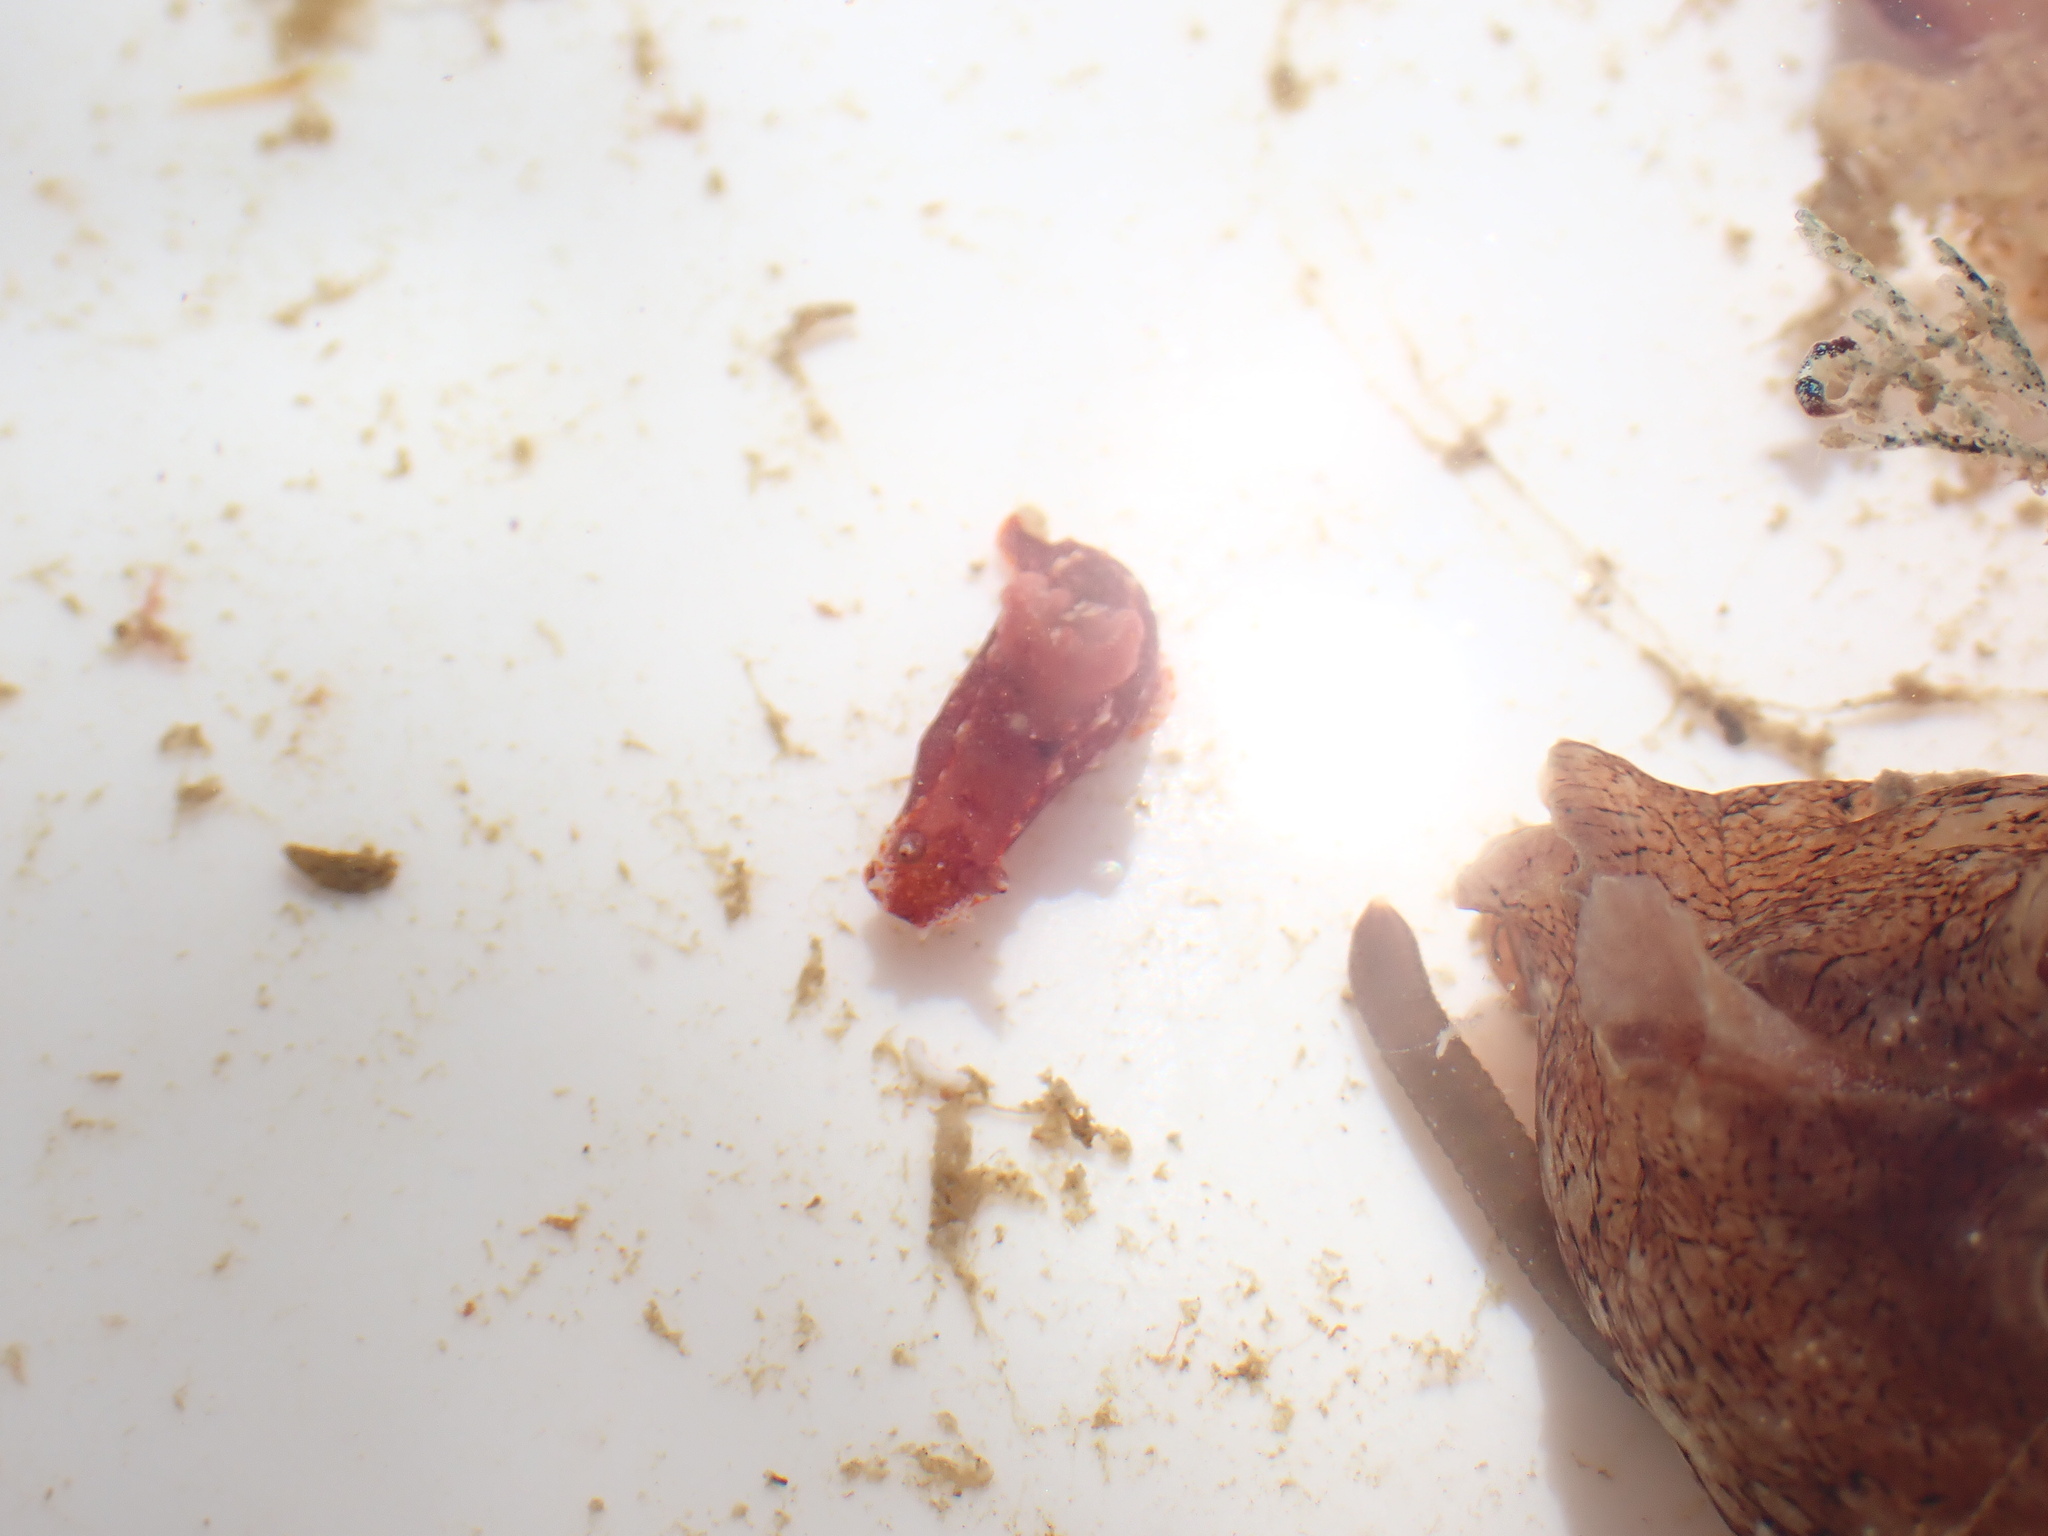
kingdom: Animalia
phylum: Mollusca
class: Gastropoda
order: Nudibranchia
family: Polyceridae
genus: Polycera
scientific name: Polycera parvula
